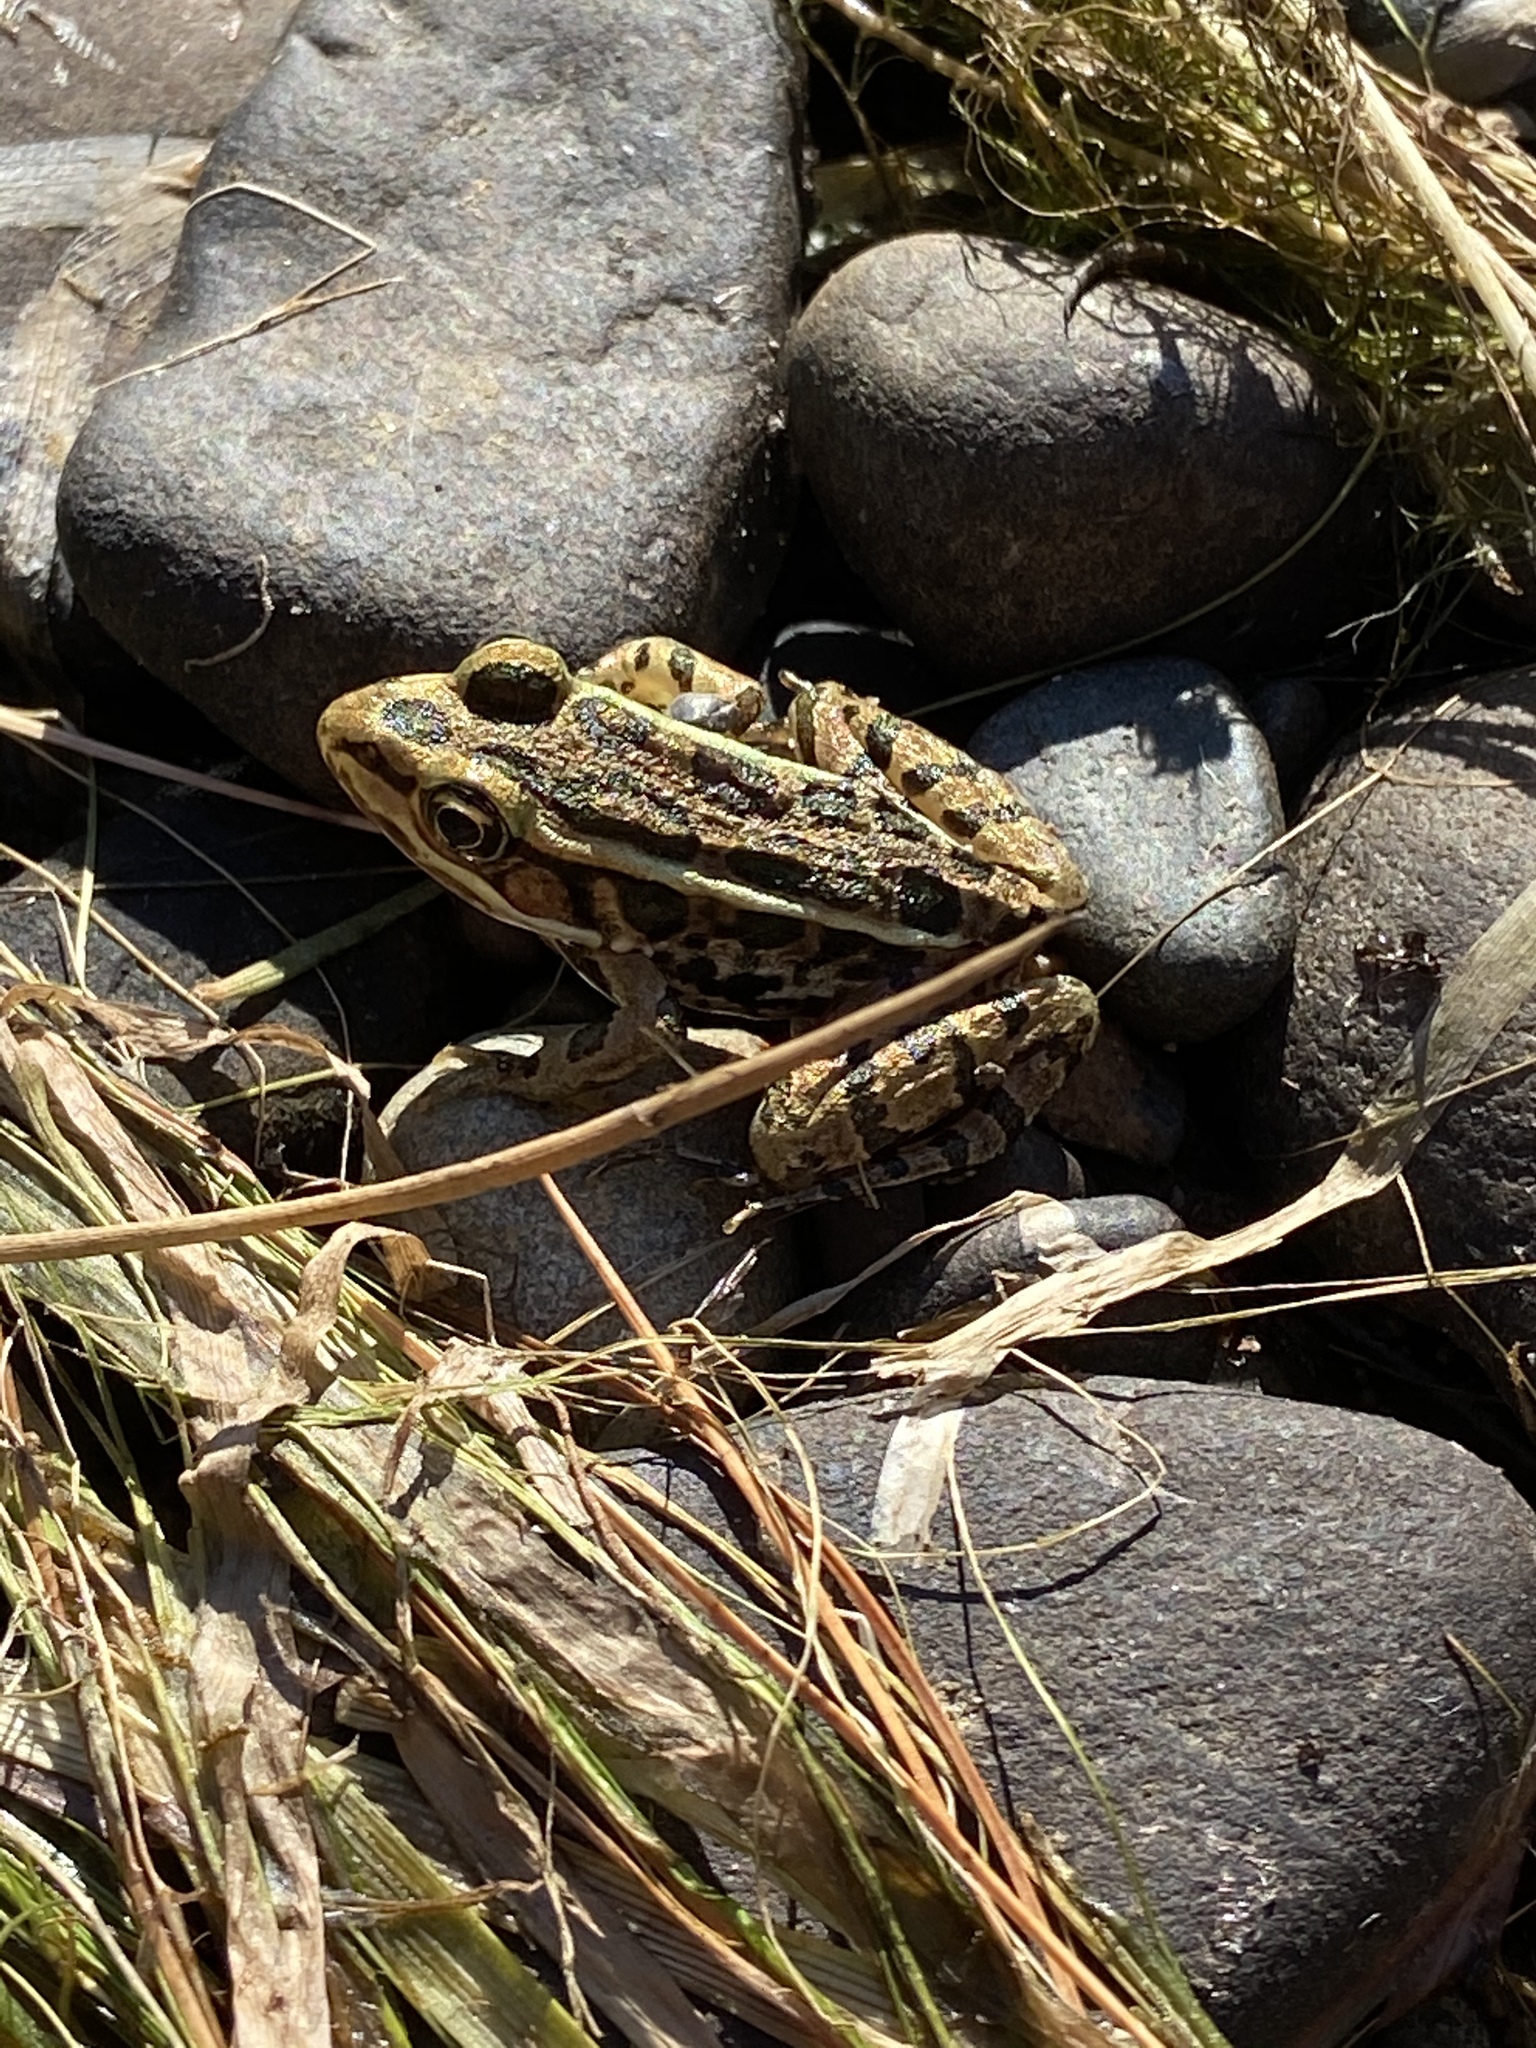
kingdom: Animalia
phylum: Chordata
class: Amphibia
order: Anura
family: Ranidae
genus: Lithobates
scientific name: Lithobates palustris
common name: Pickerel frog
